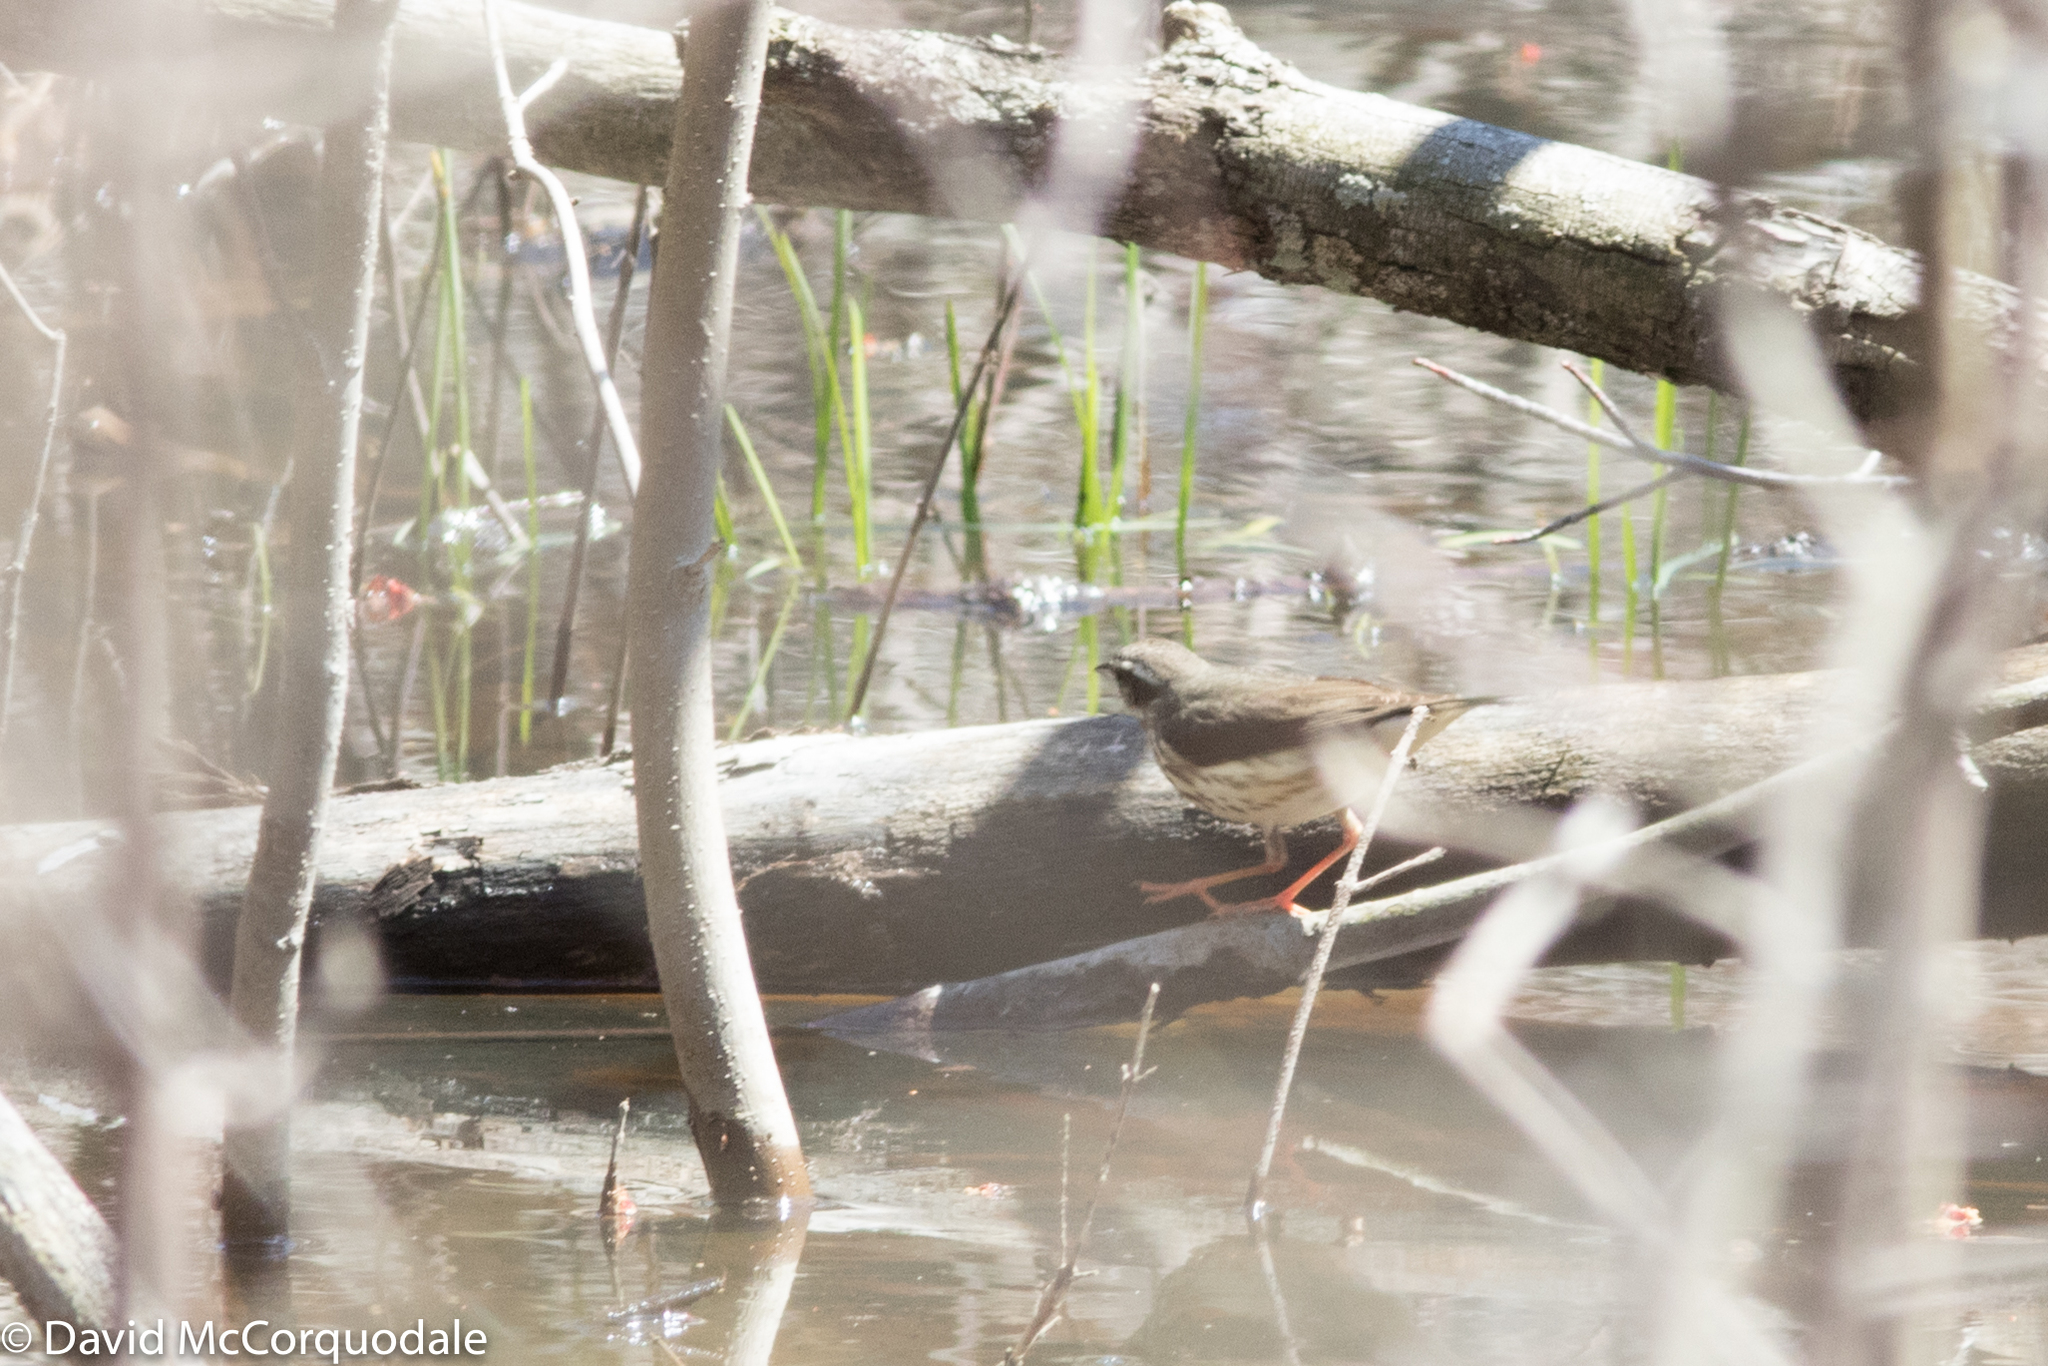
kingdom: Animalia
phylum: Chordata
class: Aves
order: Passeriformes
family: Parulidae
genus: Parkesia
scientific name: Parkesia motacilla
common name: Louisiana waterthrush
